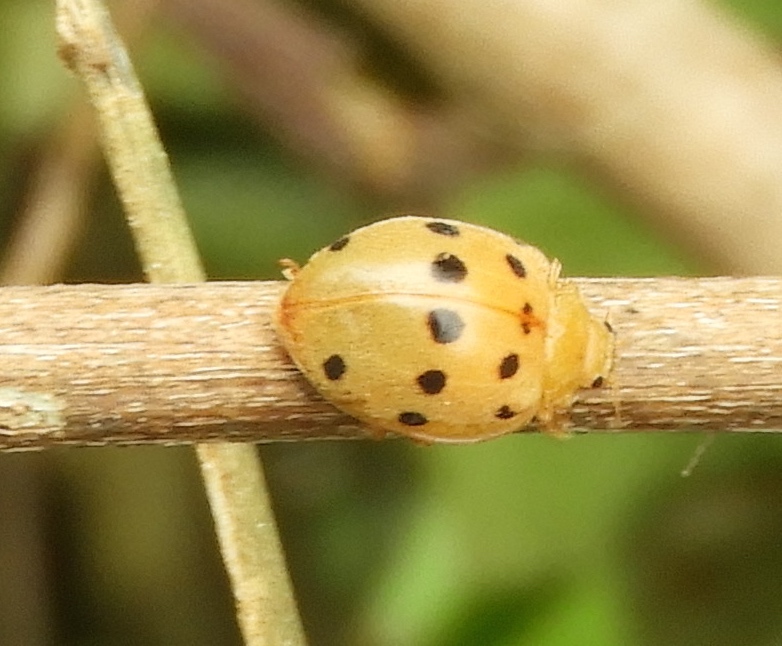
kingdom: Animalia
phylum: Arthropoda
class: Insecta
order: Coleoptera
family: Coccinellidae
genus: Epilachna
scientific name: Epilachna
